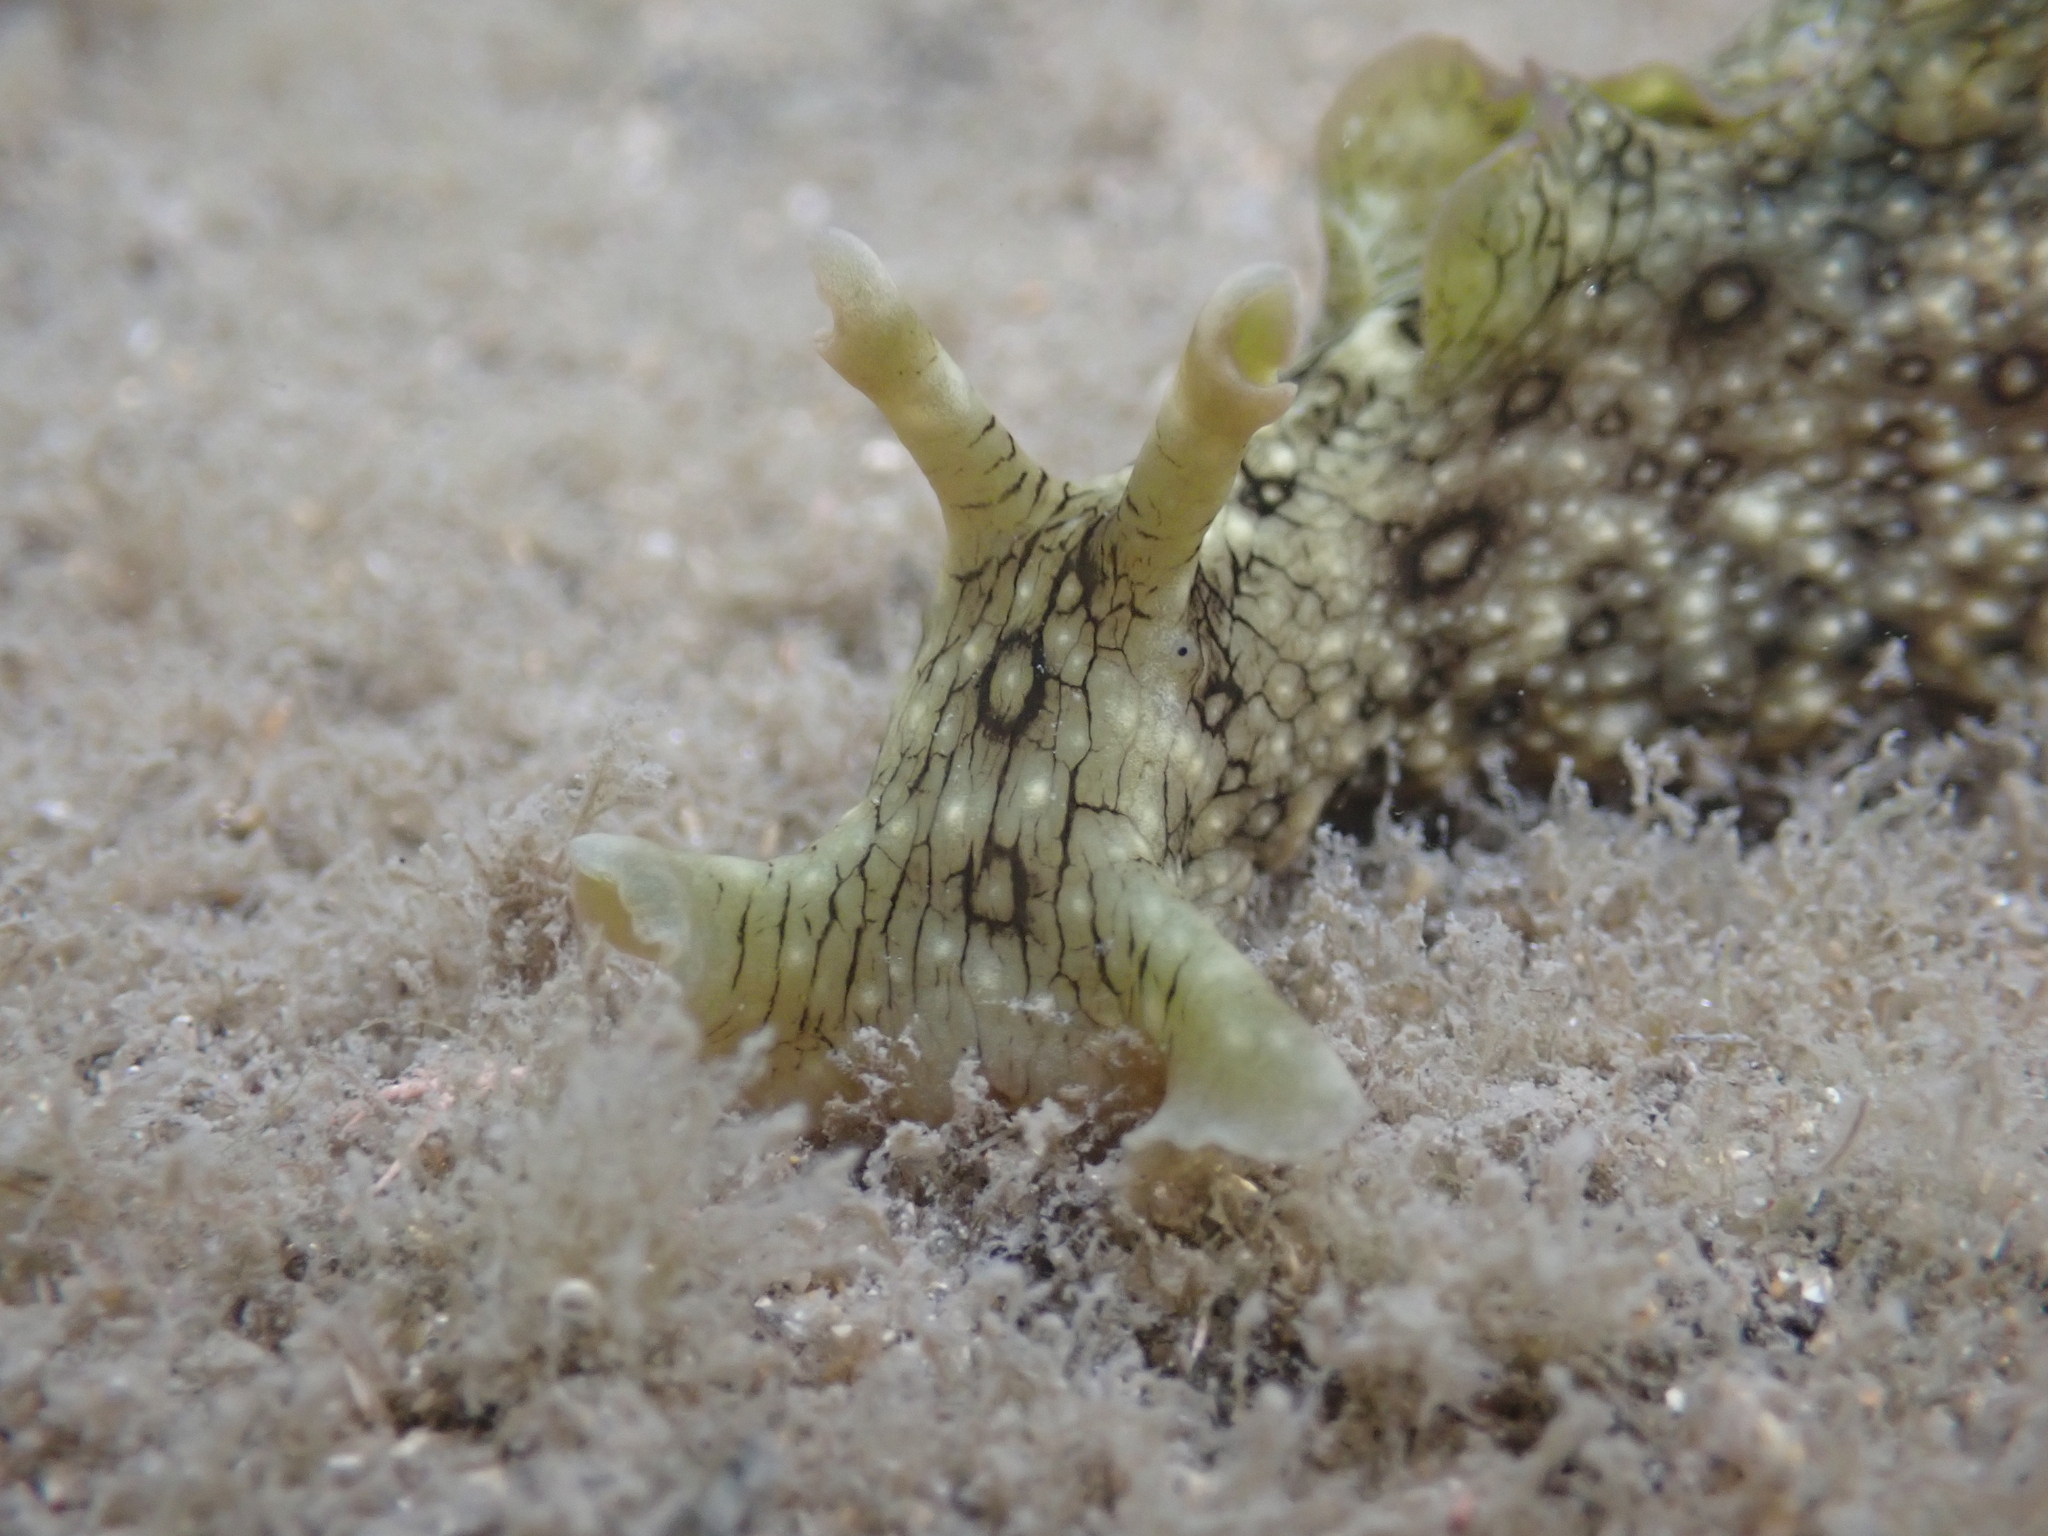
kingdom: Animalia
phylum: Mollusca
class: Gastropoda
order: Aplysiida
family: Aplysiidae
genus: Aplysia
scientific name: Aplysia argus
